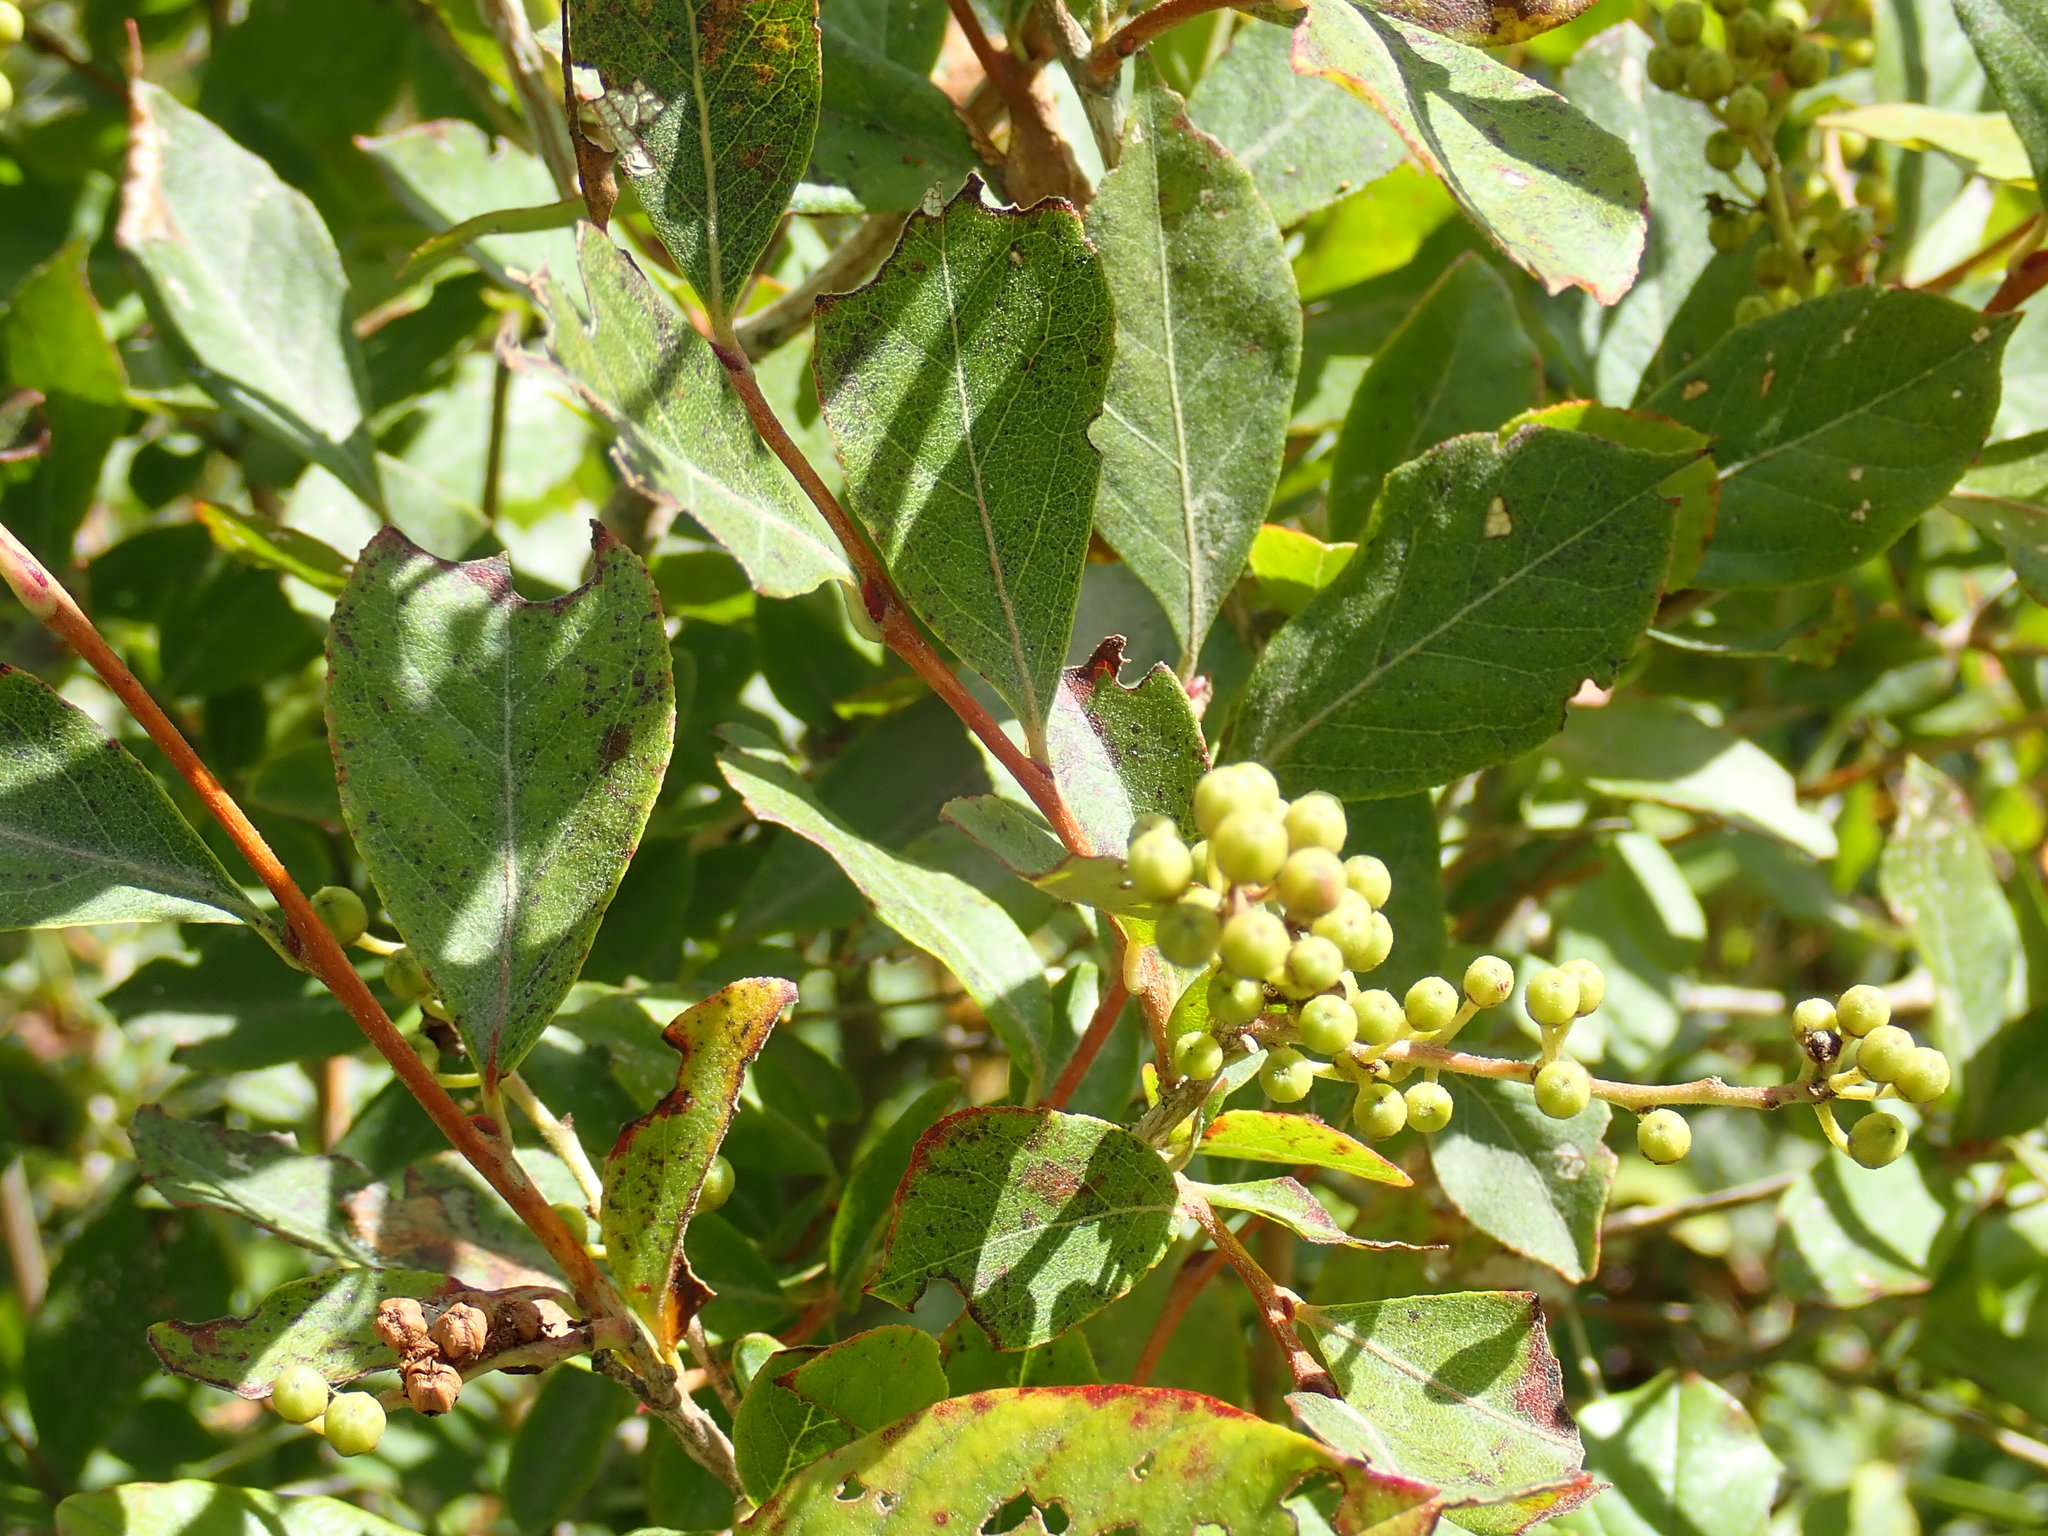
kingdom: Plantae
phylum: Tracheophyta
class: Magnoliopsida
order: Ericales
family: Ericaceae
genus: Lyonia
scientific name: Lyonia ligustrina
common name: Maleberry
